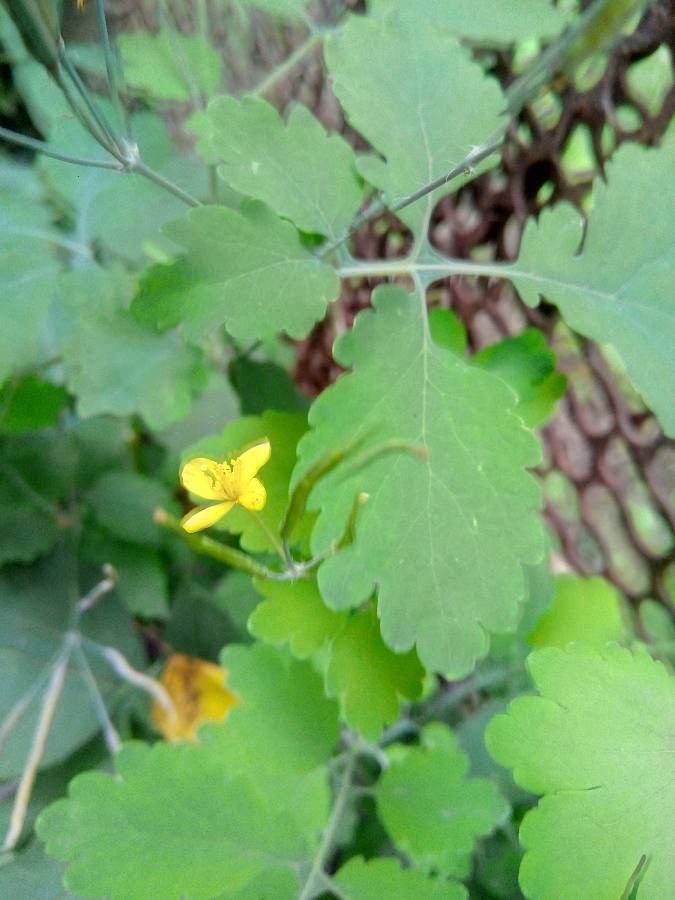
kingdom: Plantae
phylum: Tracheophyta
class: Magnoliopsida
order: Ranunculales
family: Papaveraceae
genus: Chelidonium
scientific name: Chelidonium majus
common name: Greater celandine
